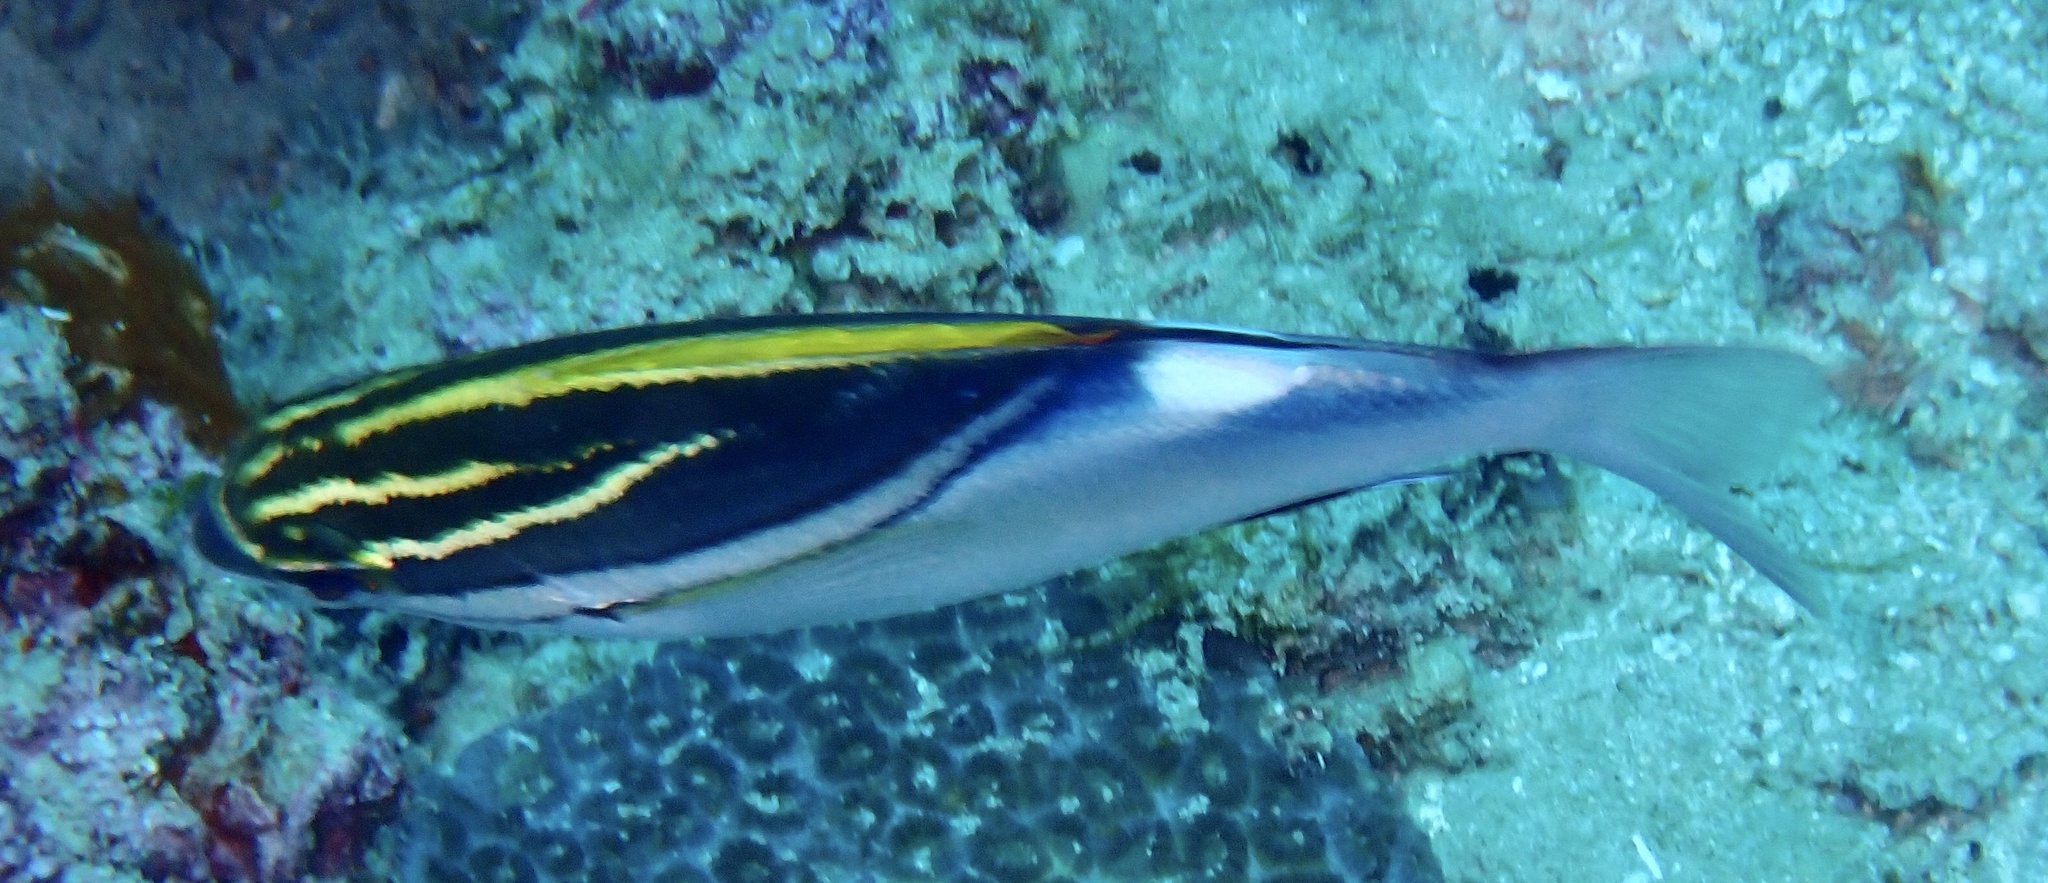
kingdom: Animalia
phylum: Chordata
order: Perciformes
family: Nemipteridae
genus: Scolopsis
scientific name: Scolopsis bilineata
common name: Two-lined monocle bream
